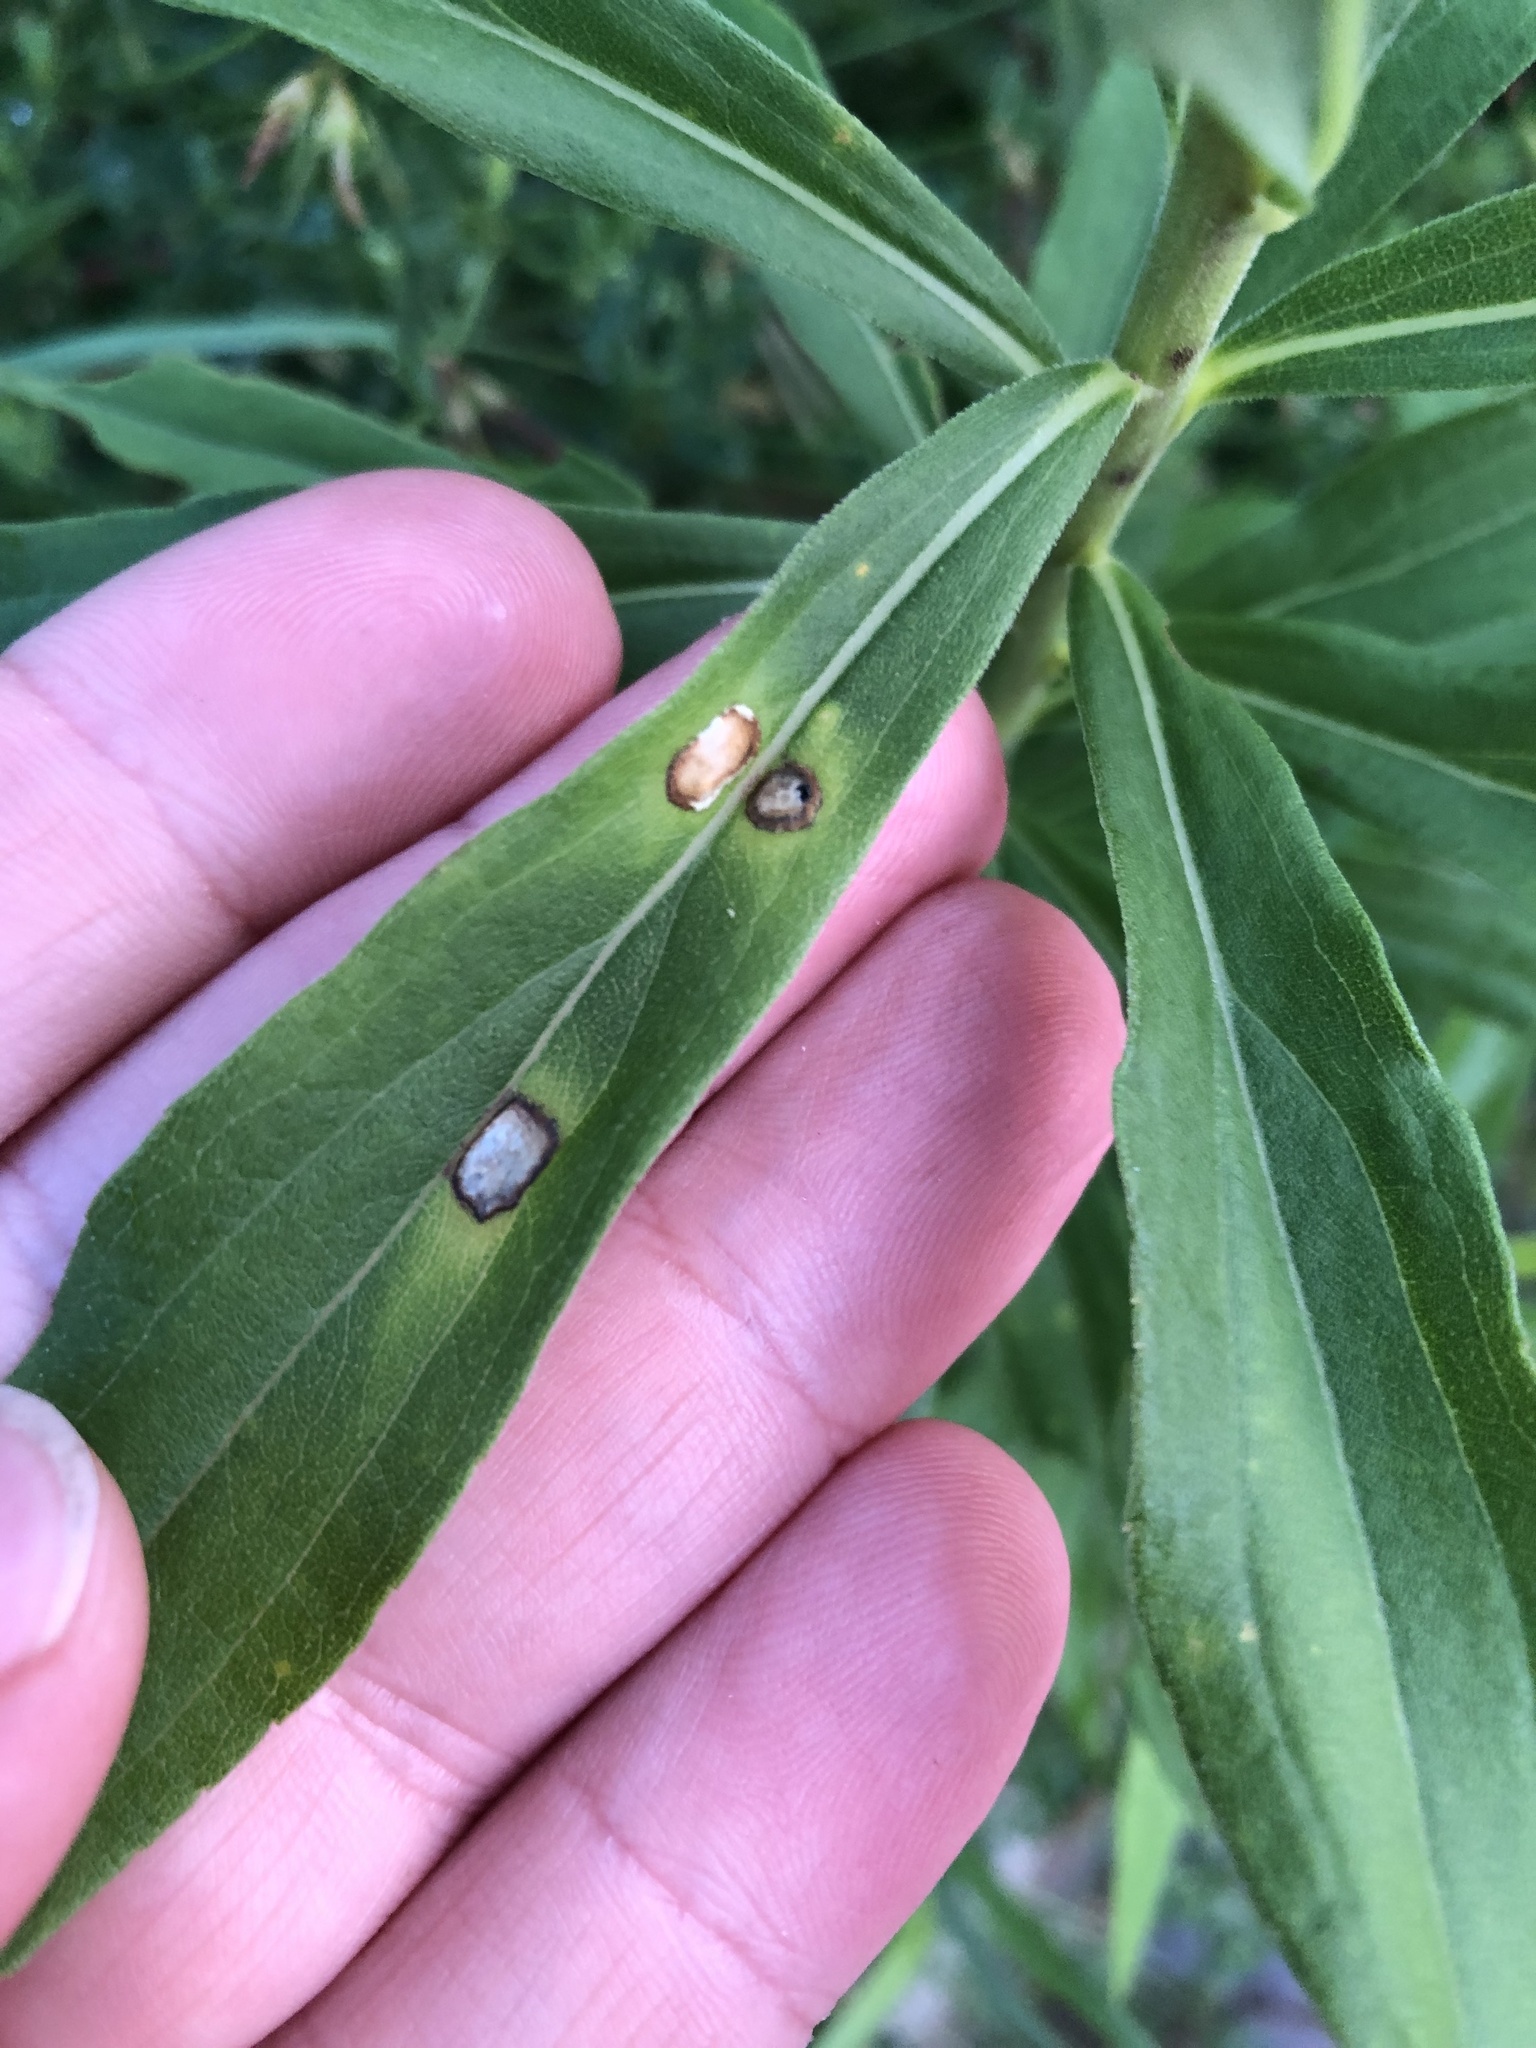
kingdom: Animalia
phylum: Arthropoda
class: Insecta
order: Diptera
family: Cecidomyiidae
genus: Asteromyia
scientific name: Asteromyia carbonifera
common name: Carbonifera goldenrod gall midge
